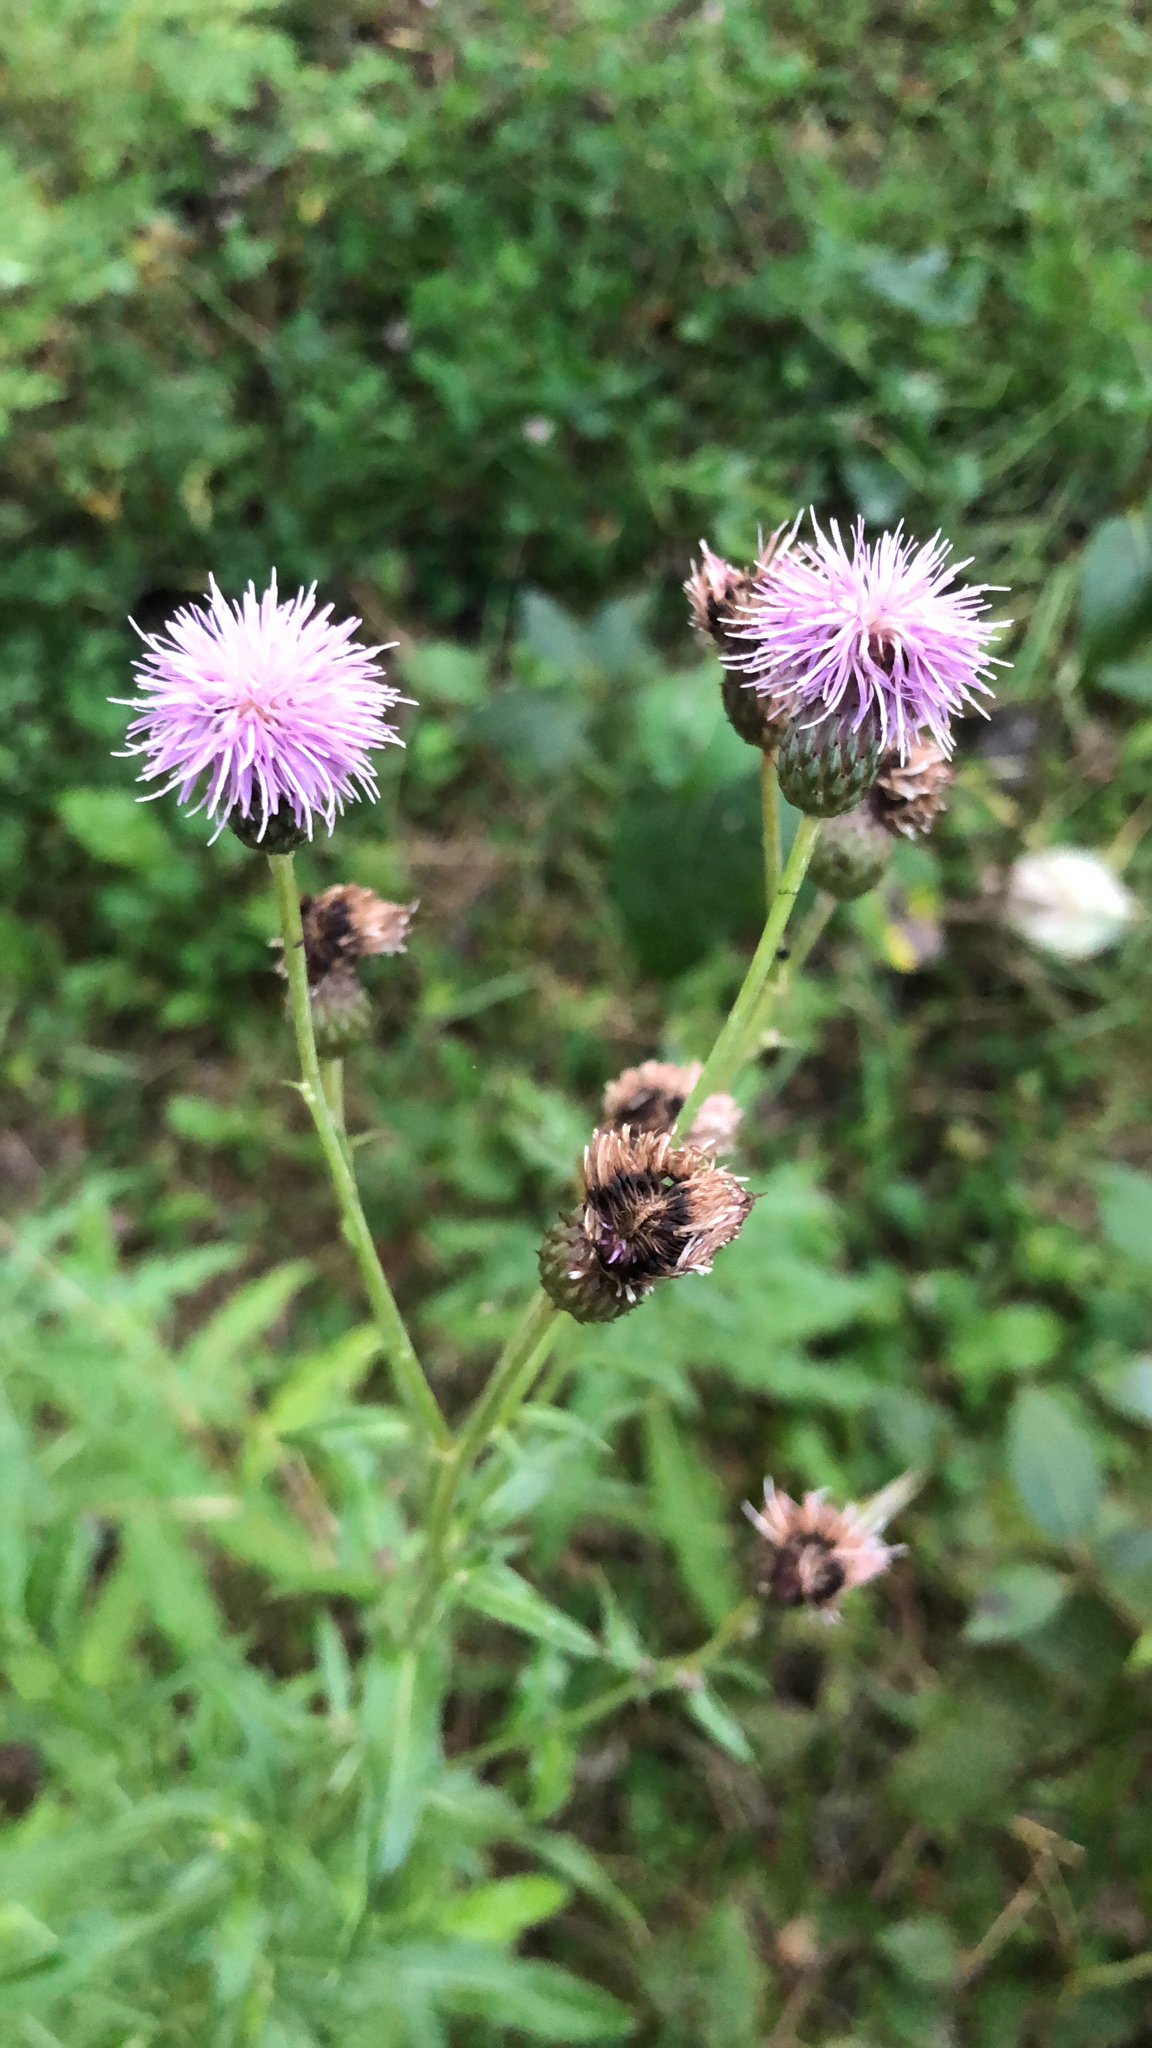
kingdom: Plantae
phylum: Tracheophyta
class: Magnoliopsida
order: Asterales
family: Asteraceae
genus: Cirsium
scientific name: Cirsium arvense
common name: Creeping thistle
